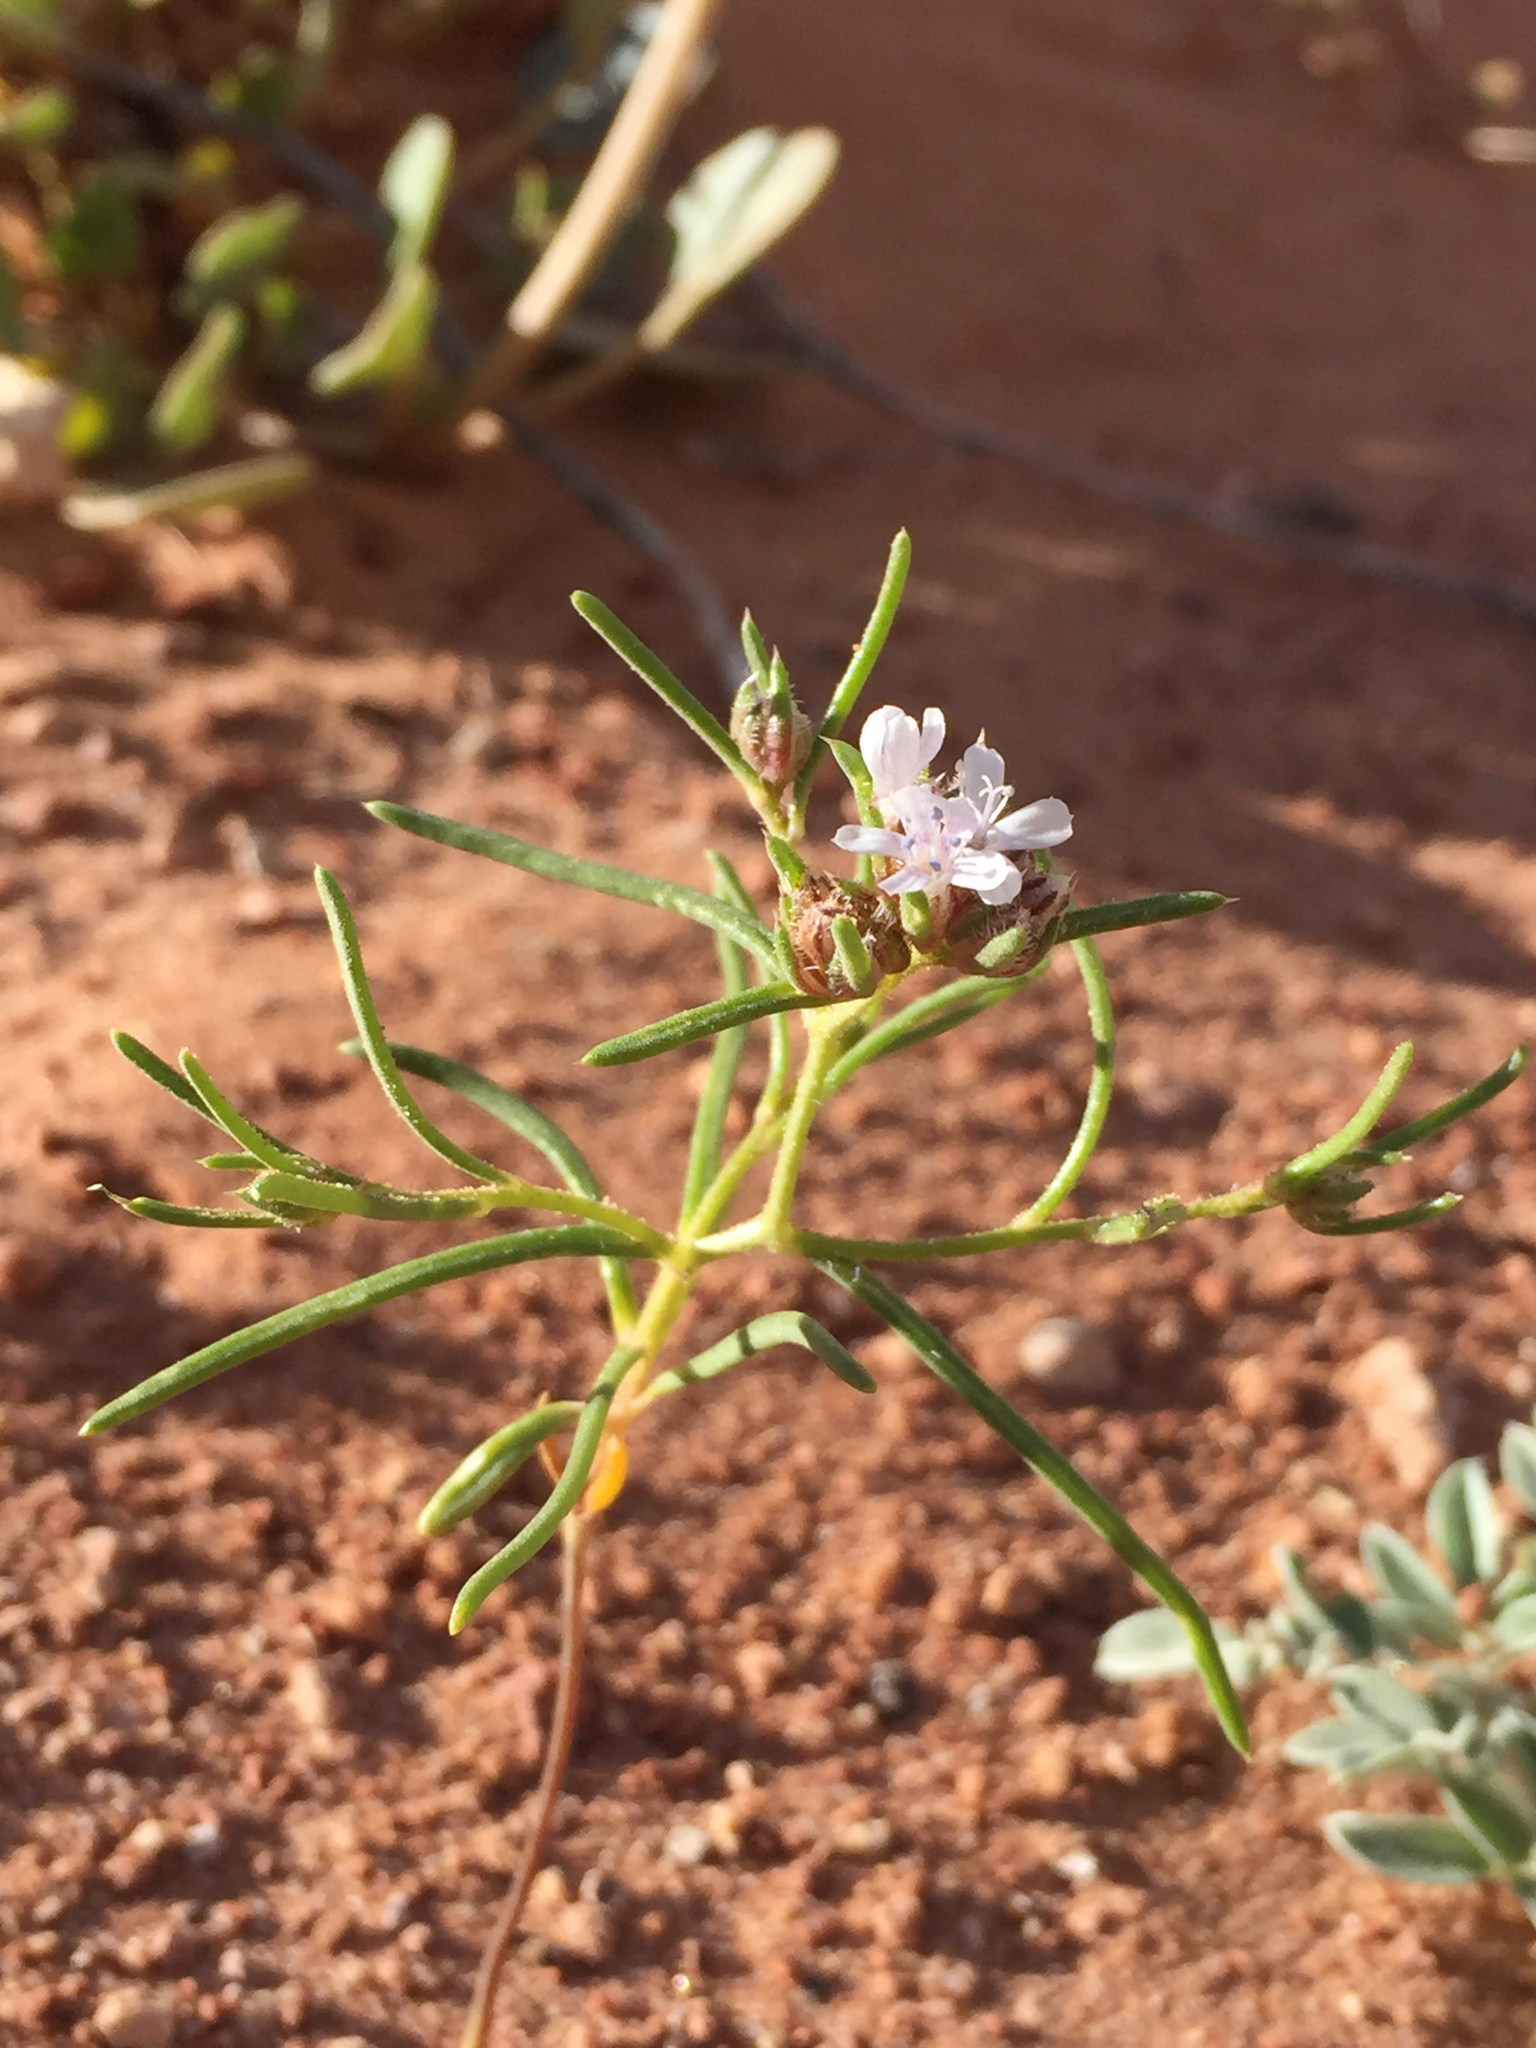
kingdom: Plantae
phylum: Tracheophyta
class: Magnoliopsida
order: Ericales
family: Polemoniaceae
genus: Ipomopsis
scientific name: Ipomopsis gunnisonii
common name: Sand-dune gilia
